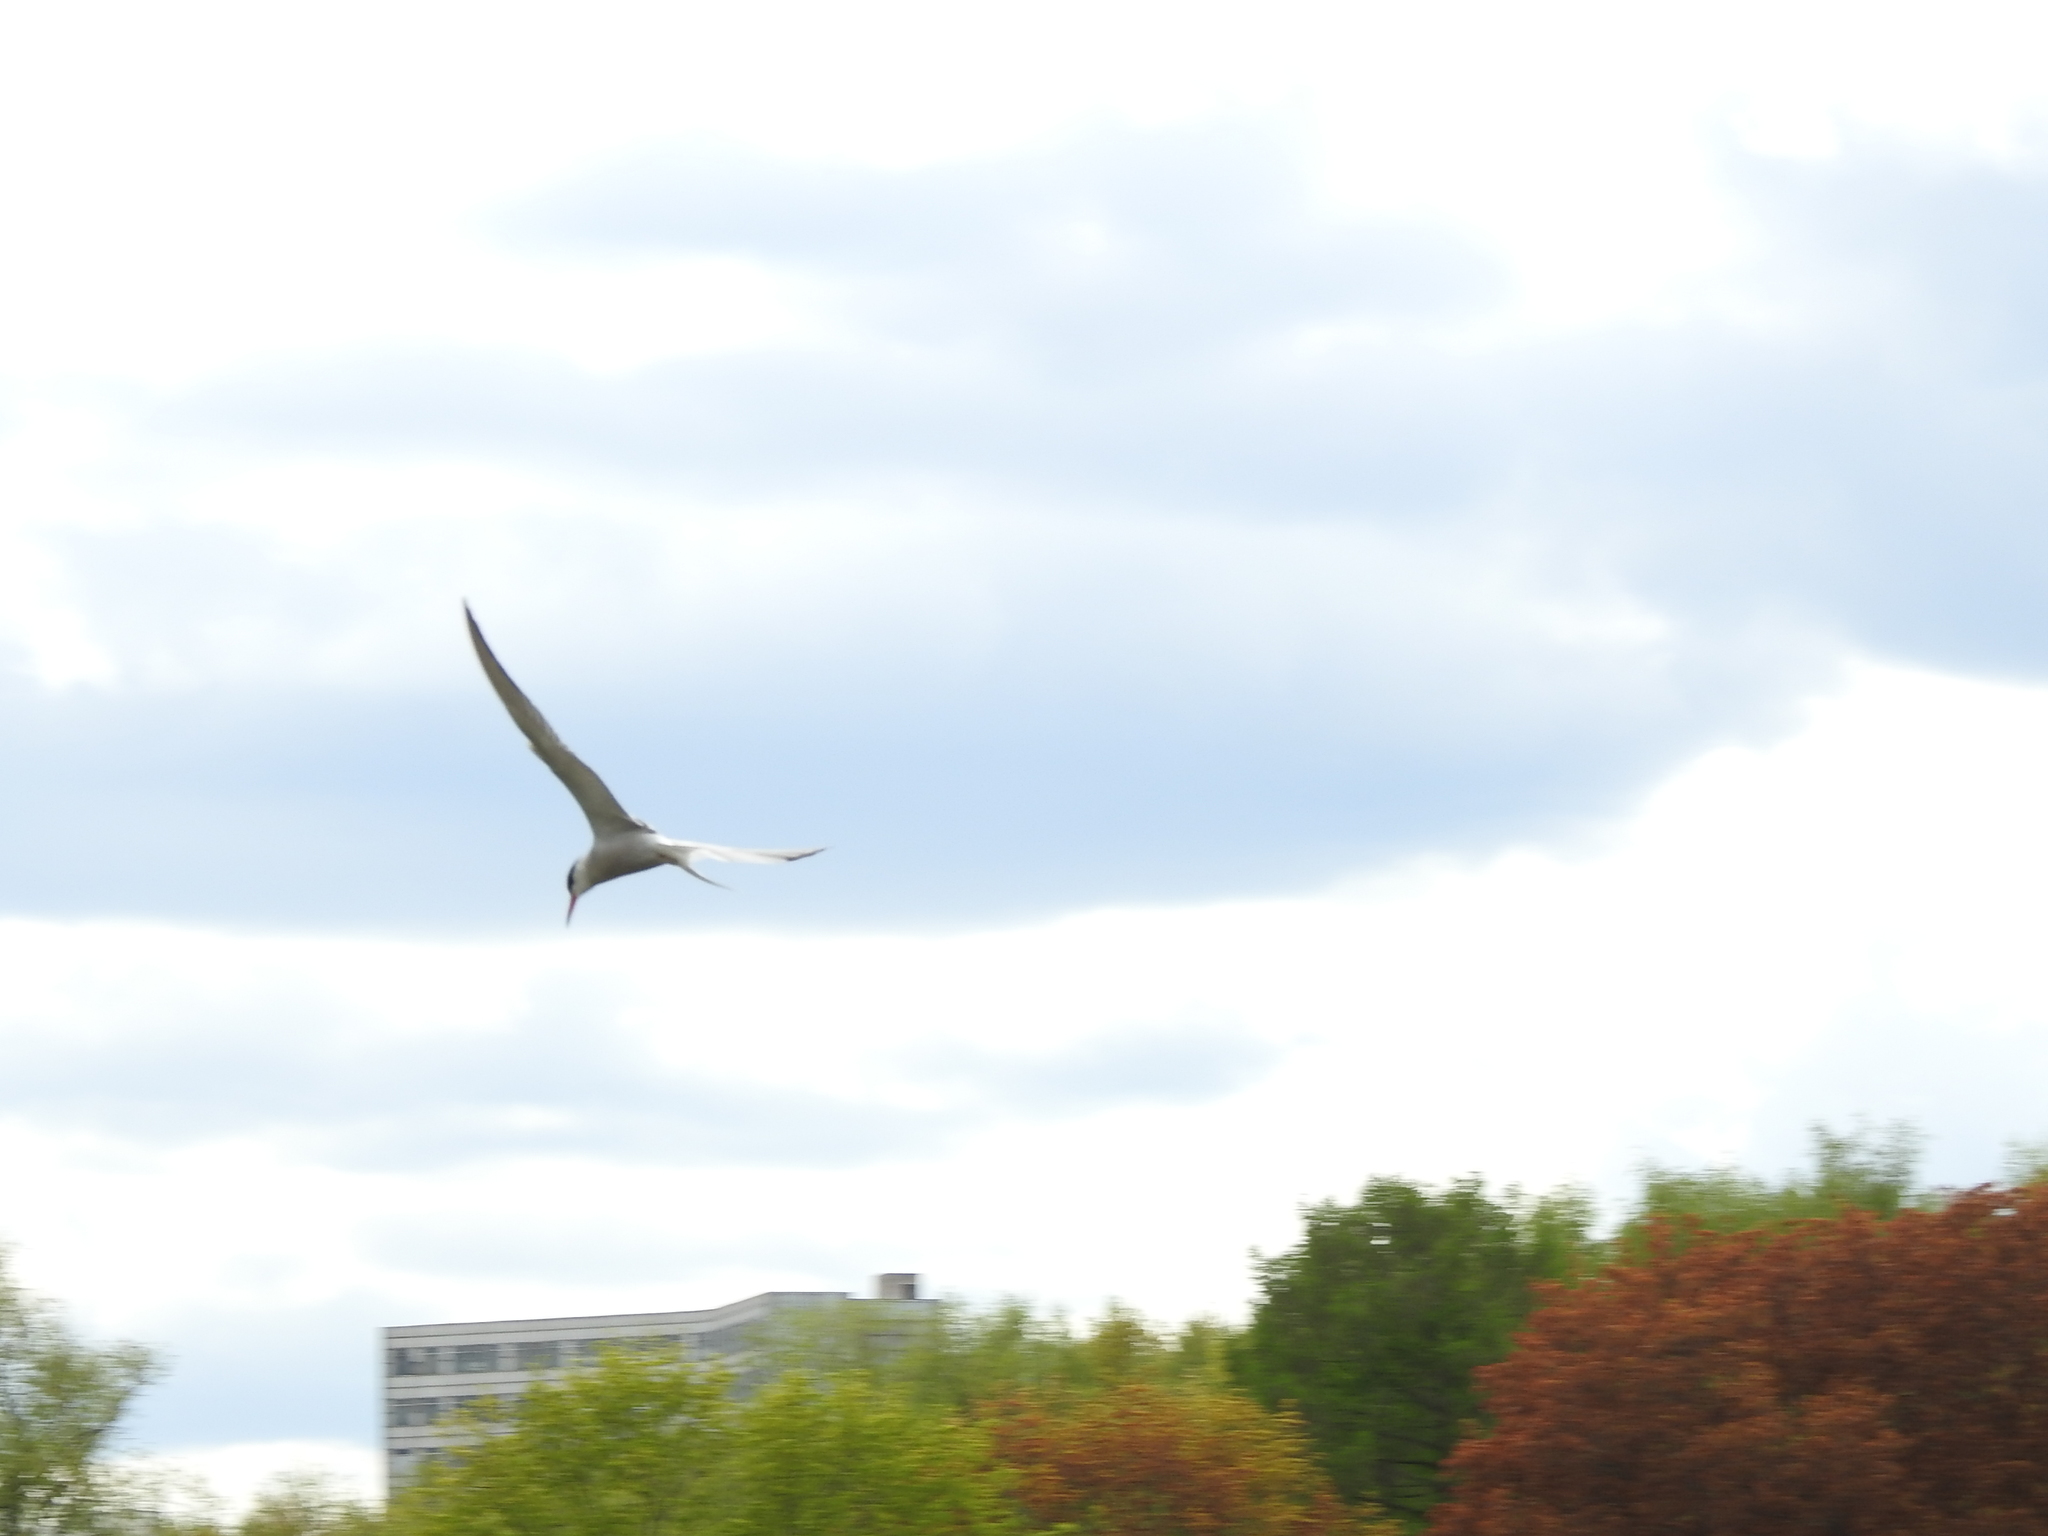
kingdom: Animalia
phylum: Chordata
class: Aves
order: Charadriiformes
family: Laridae
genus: Sterna
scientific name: Sterna hirundo
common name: Common tern
